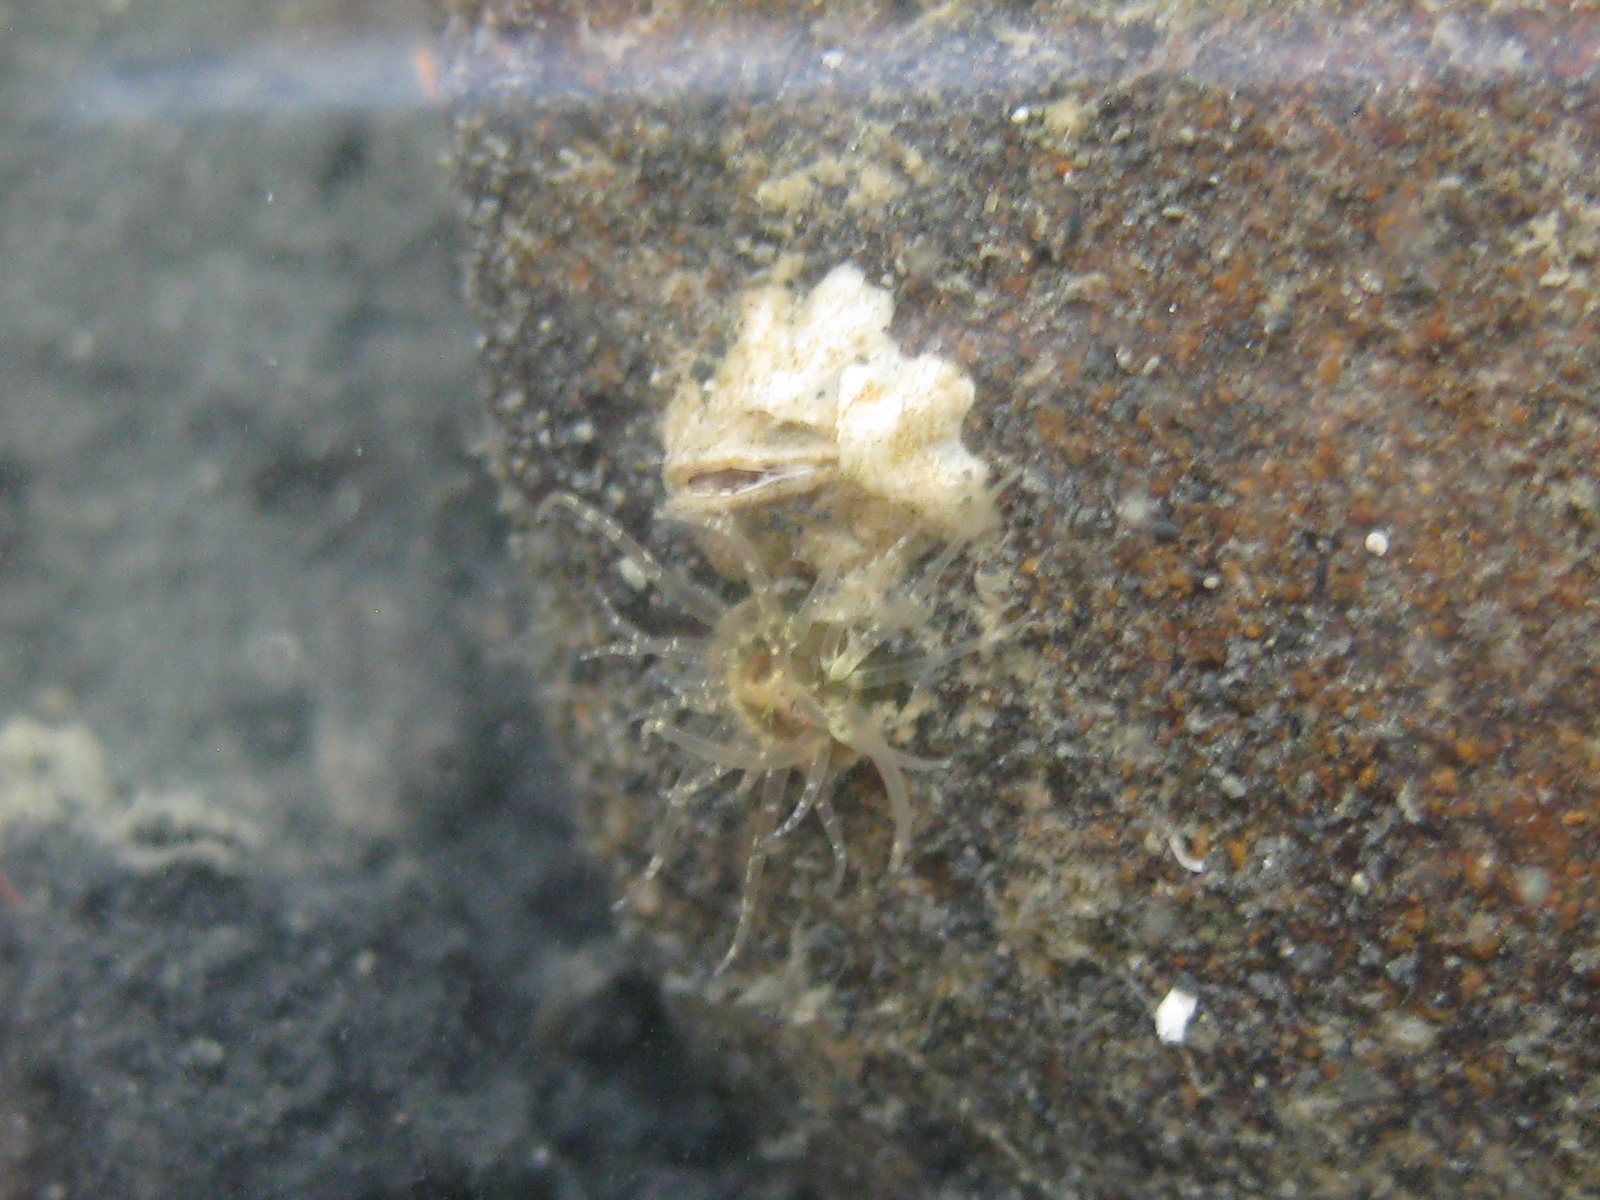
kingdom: Animalia
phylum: Cnidaria
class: Anthozoa
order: Actiniaria
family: Diadumenidae
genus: Diadumene
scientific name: Diadumene lineata
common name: Orange-striped anemone
